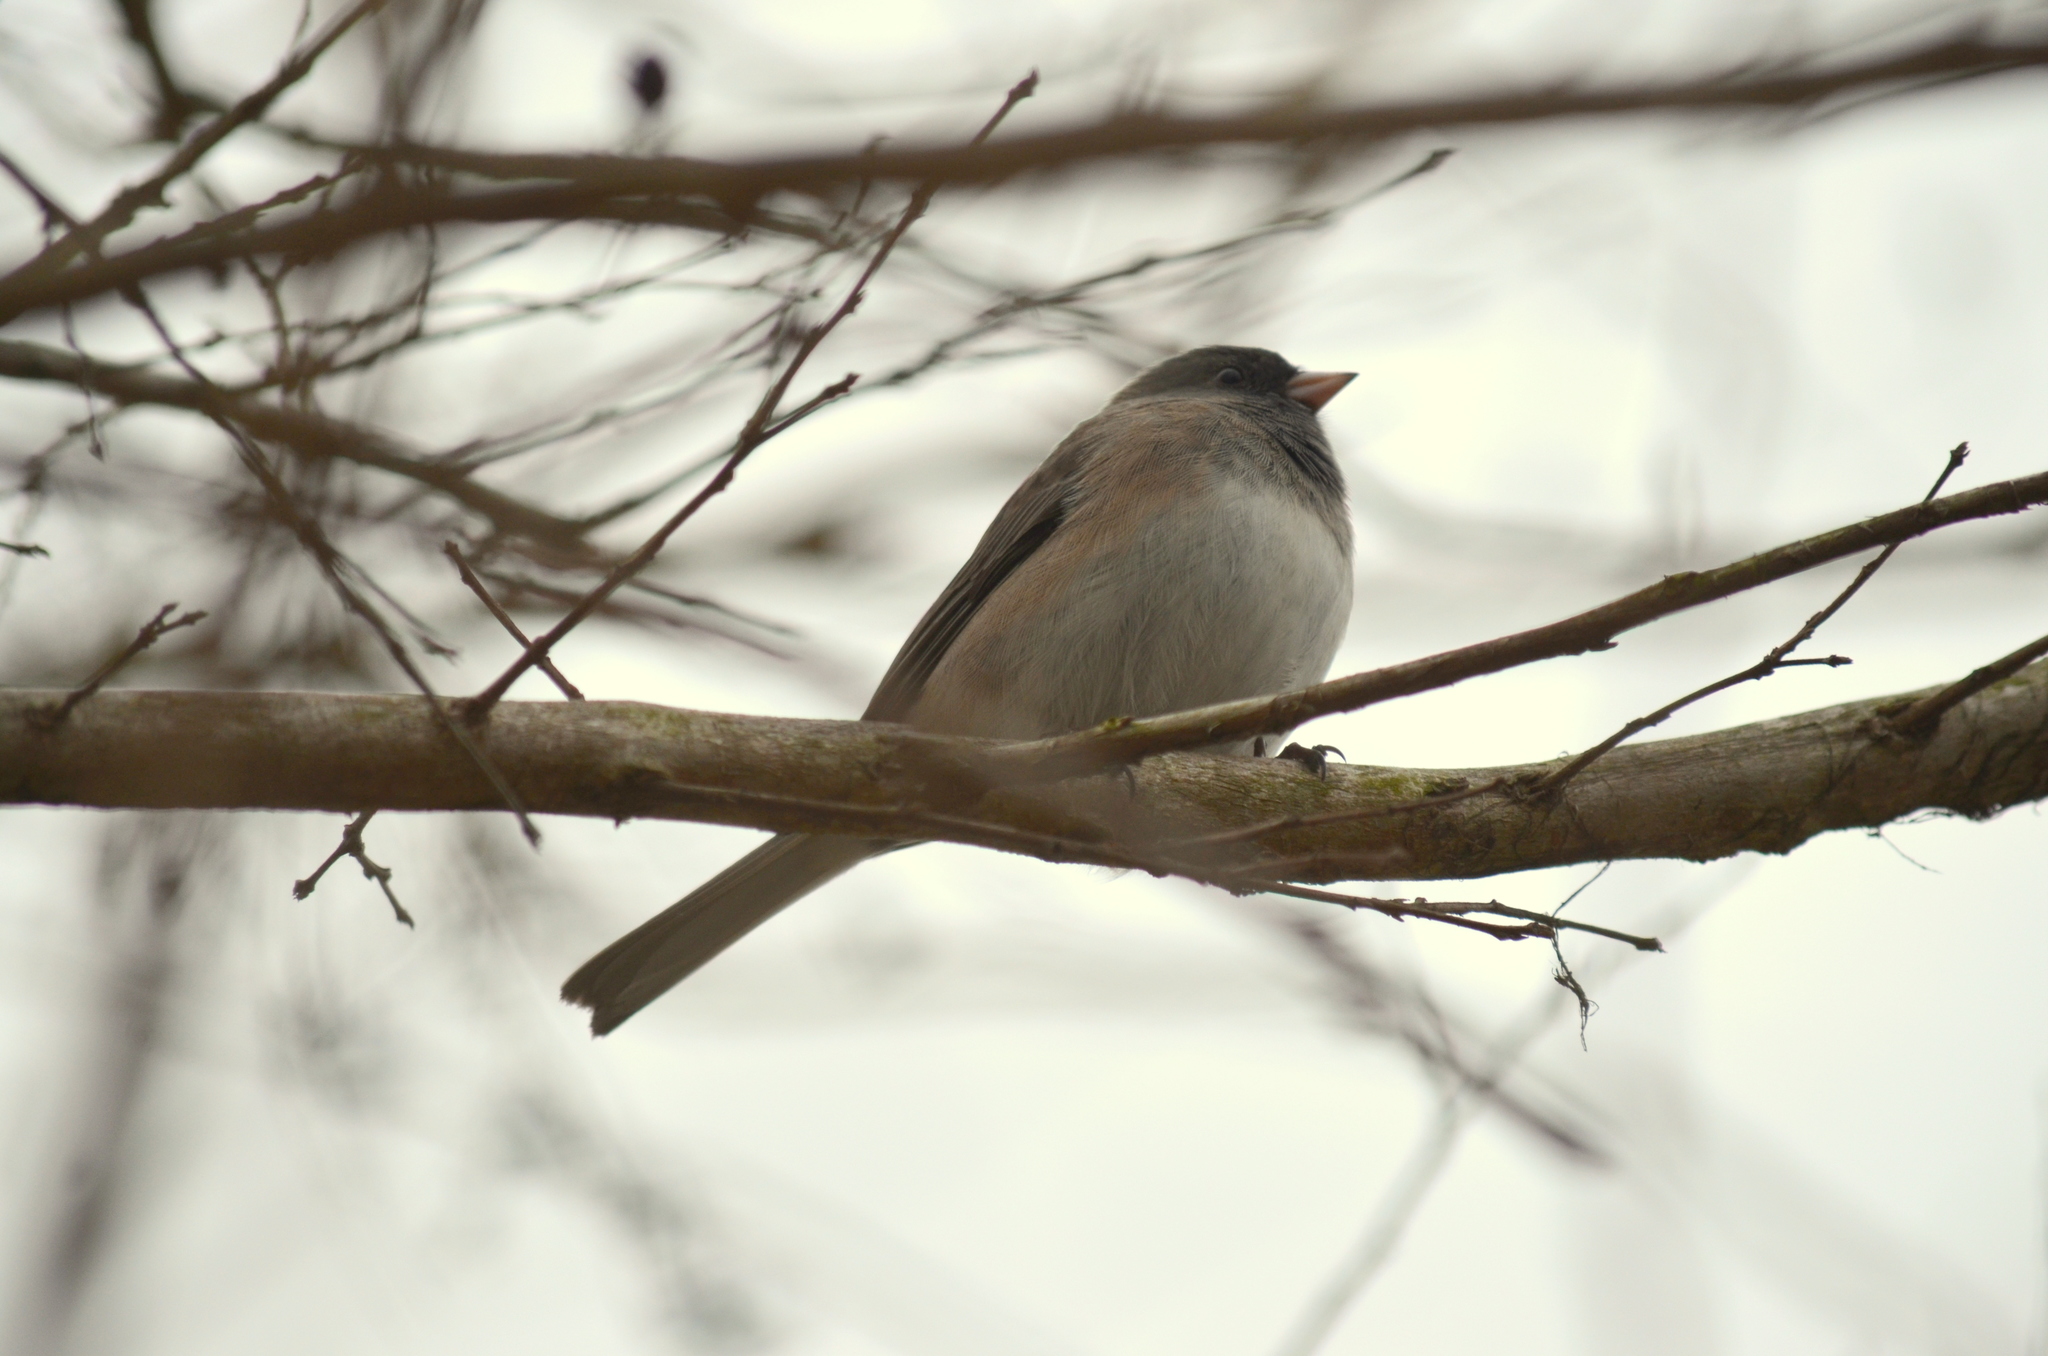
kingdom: Animalia
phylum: Chordata
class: Aves
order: Passeriformes
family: Passerellidae
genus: Junco
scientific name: Junco hyemalis
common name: Dark-eyed junco
